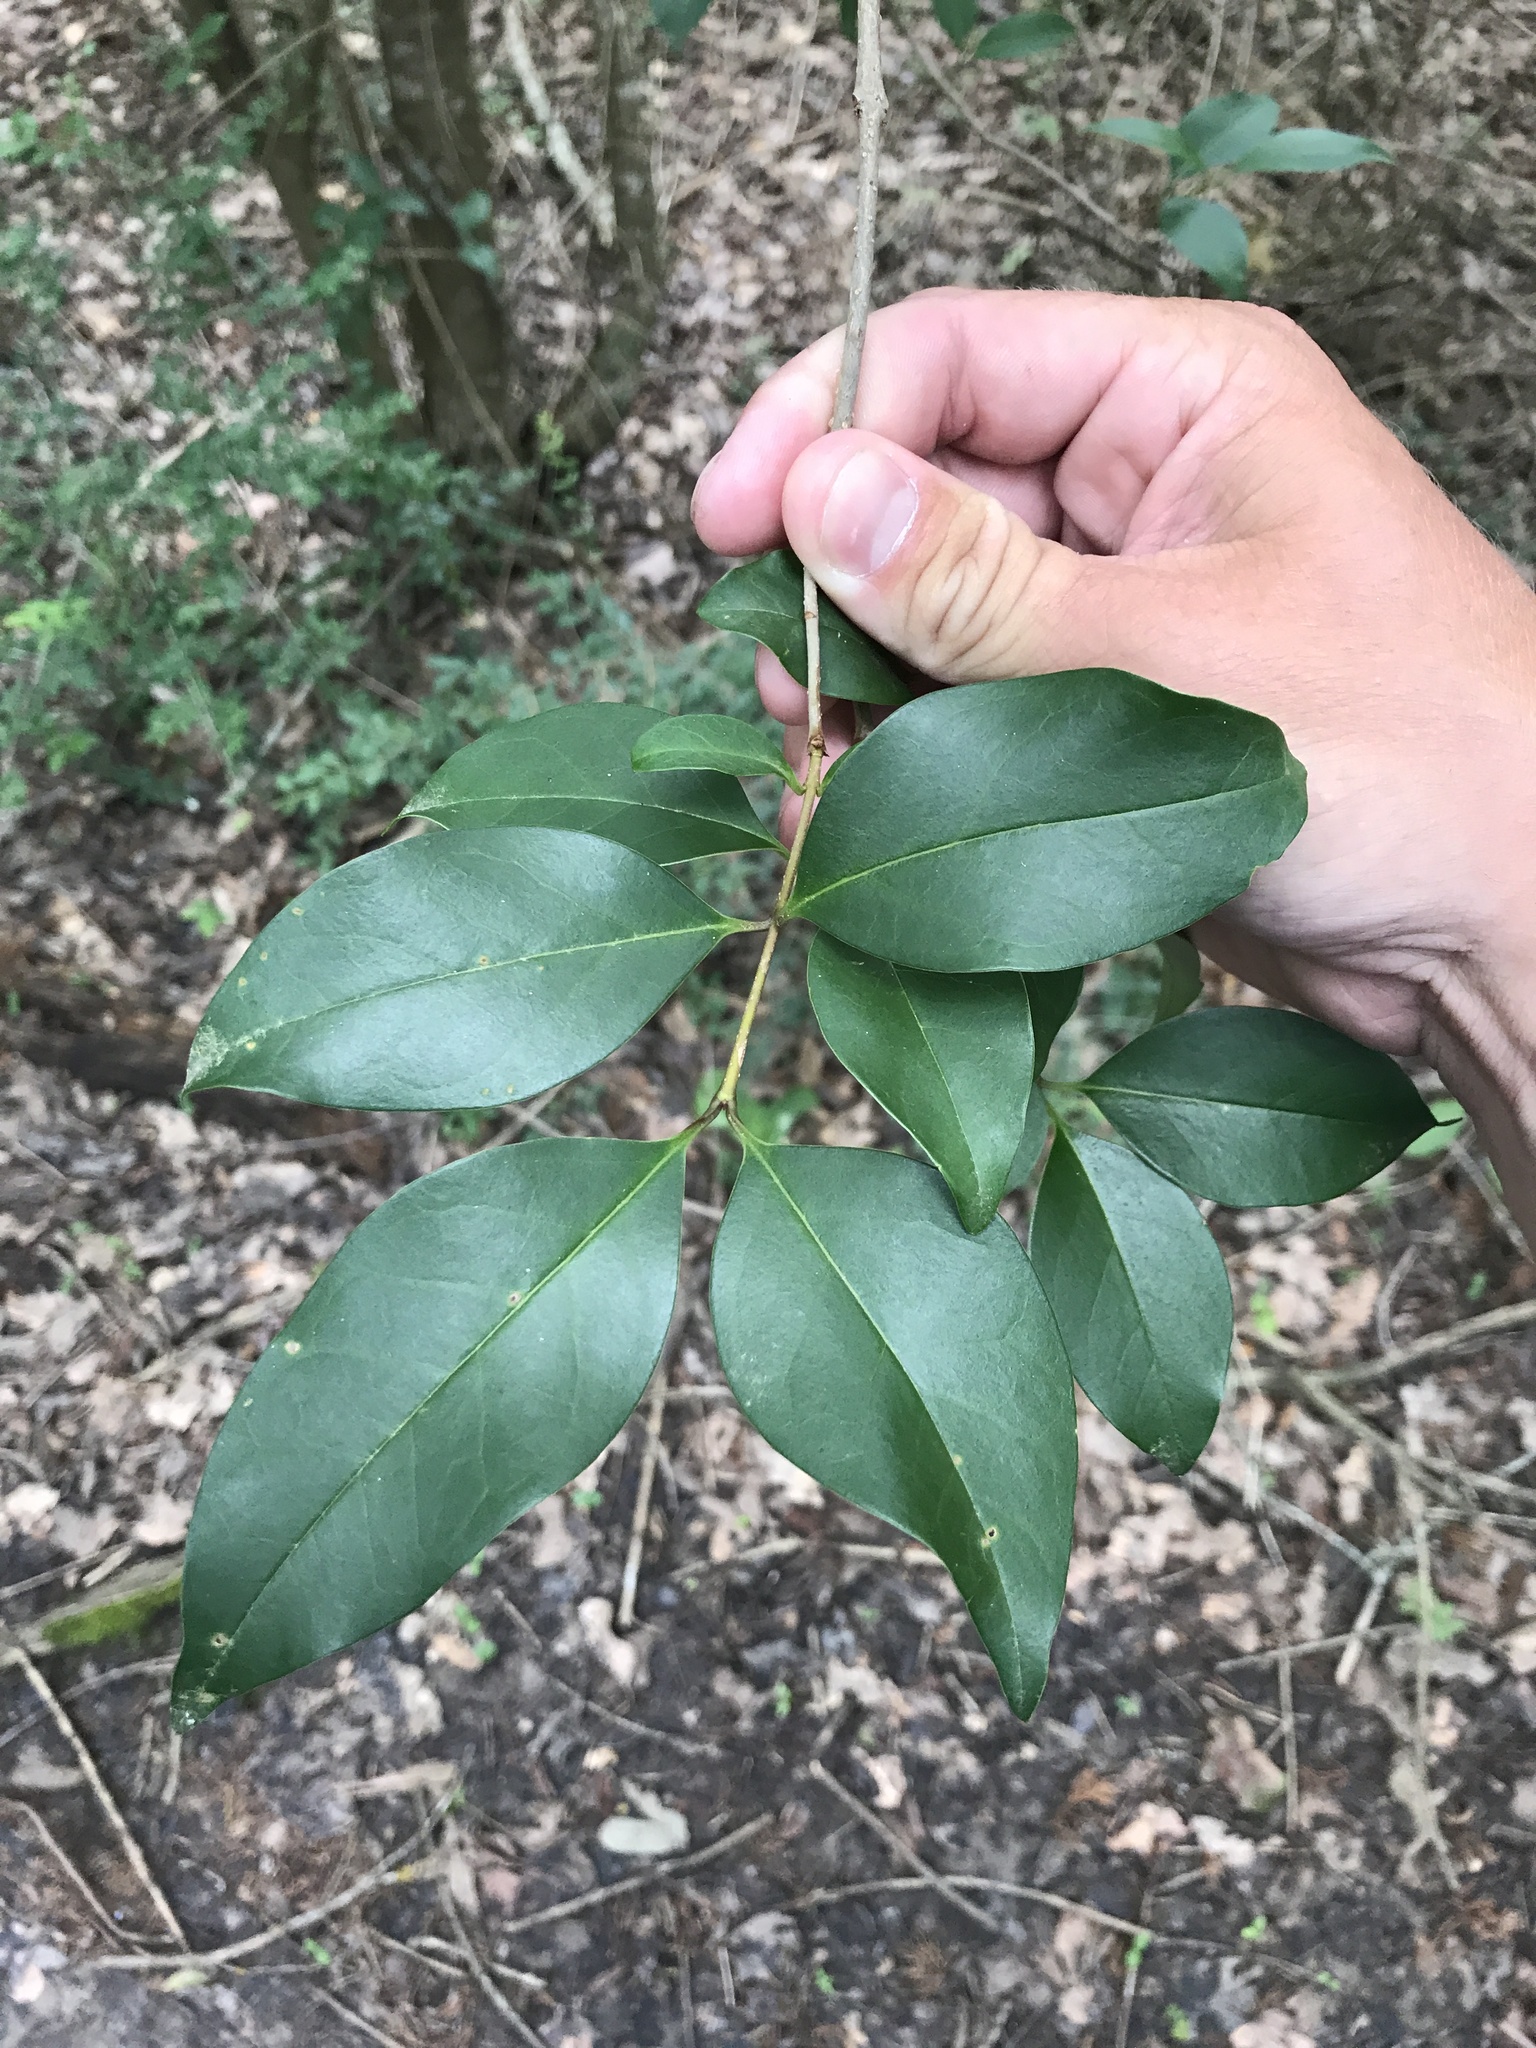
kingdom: Plantae
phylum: Tracheophyta
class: Magnoliopsida
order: Lamiales
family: Oleaceae
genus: Ligustrum
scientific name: Ligustrum lucidum
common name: Glossy privet
